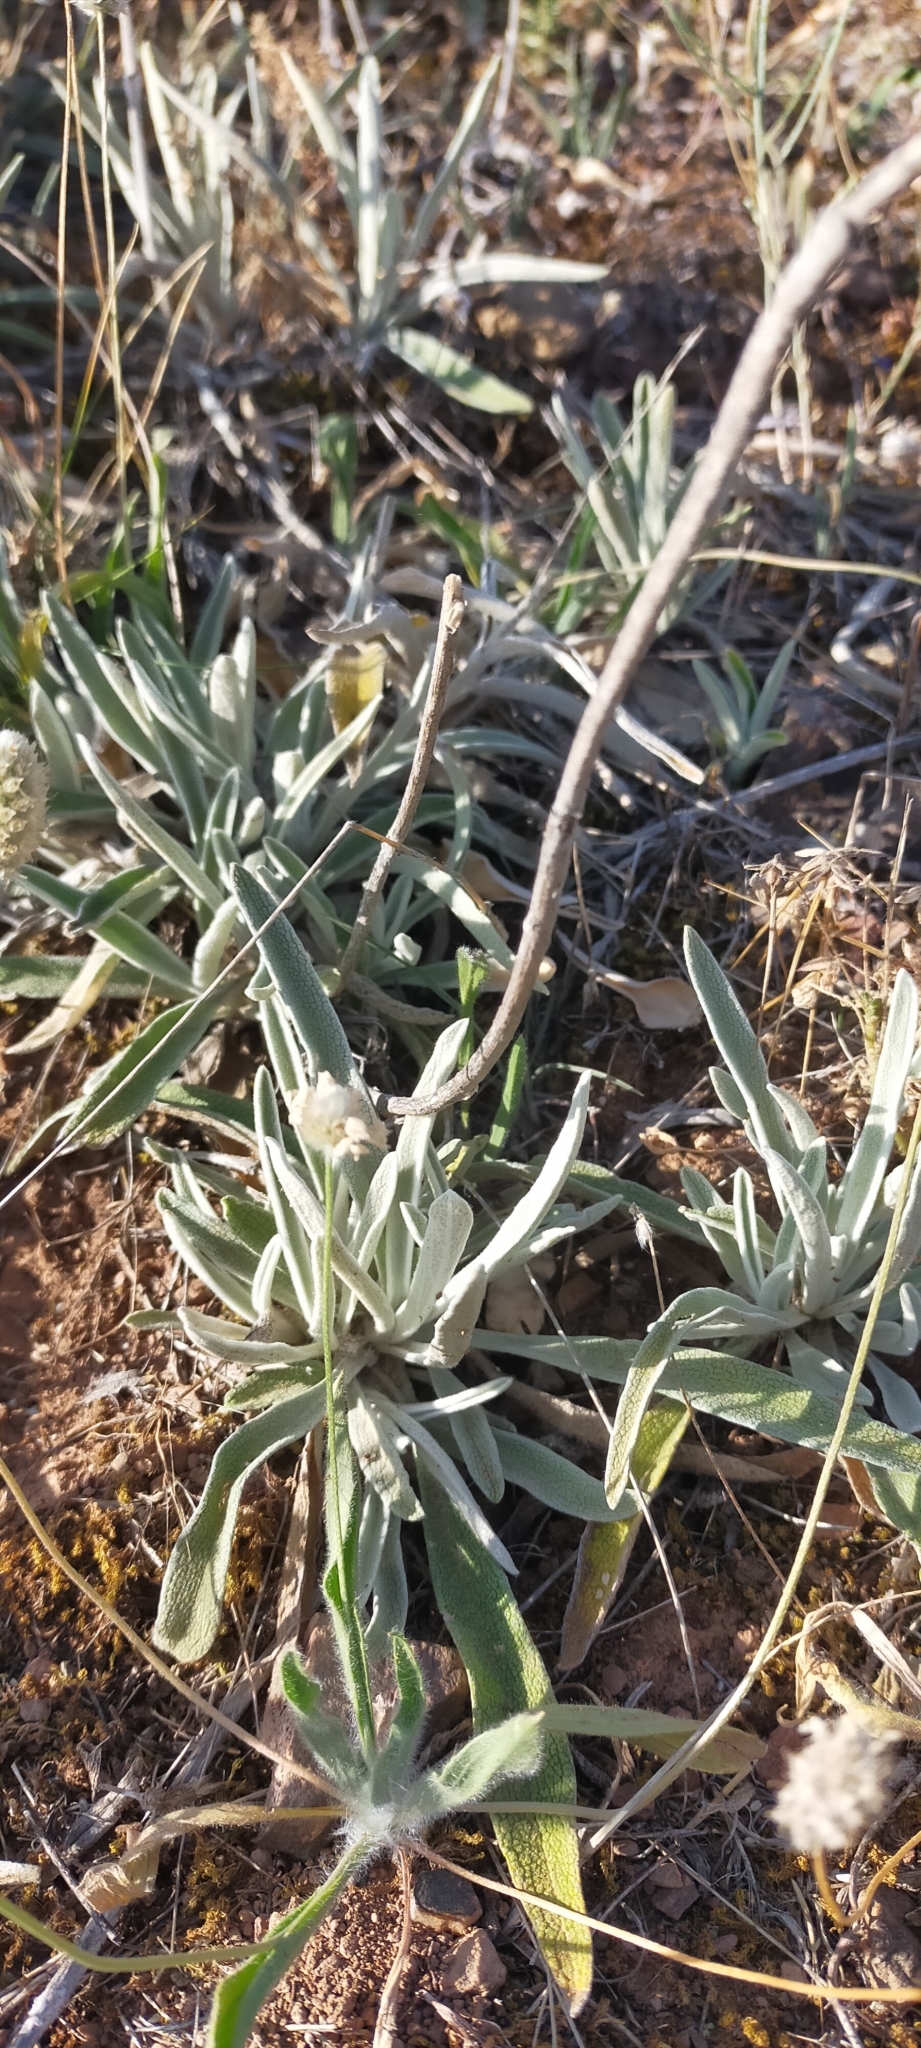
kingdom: Plantae
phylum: Tracheophyta
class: Magnoliopsida
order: Lamiales
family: Lamiaceae
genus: Phlomis
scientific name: Phlomis lychnitis
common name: Lampwickplant
